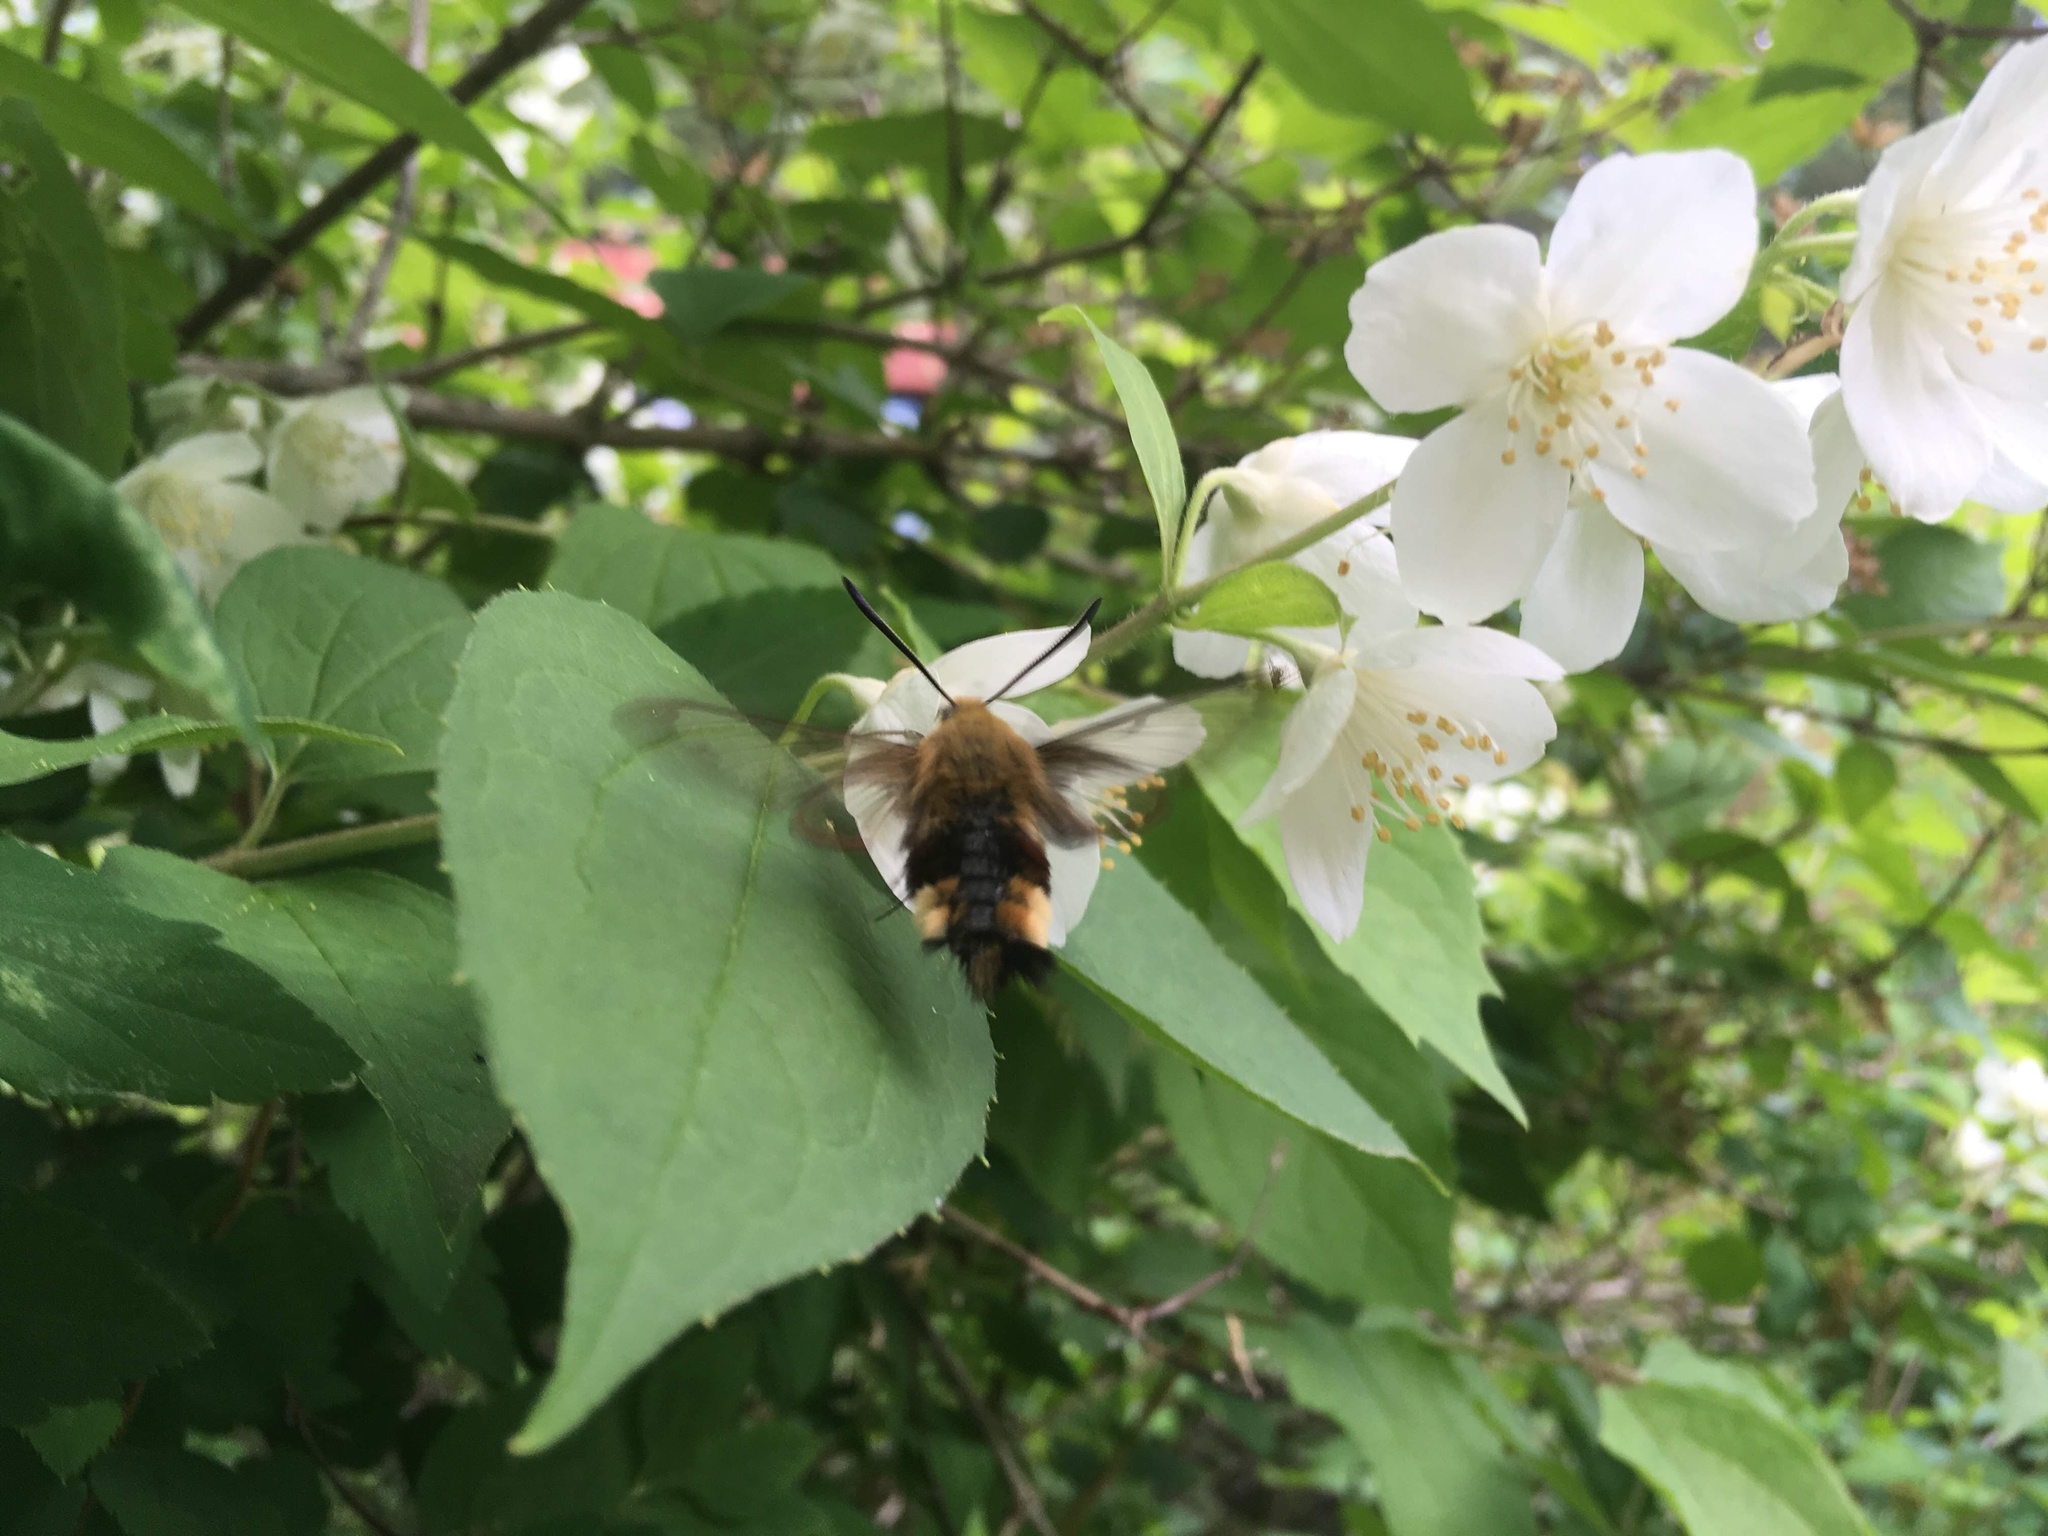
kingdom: Animalia
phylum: Arthropoda
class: Insecta
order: Lepidoptera
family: Sphingidae
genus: Hemaris
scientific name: Hemaris fuciformis
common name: Broad-bordered bee hawk-moth
